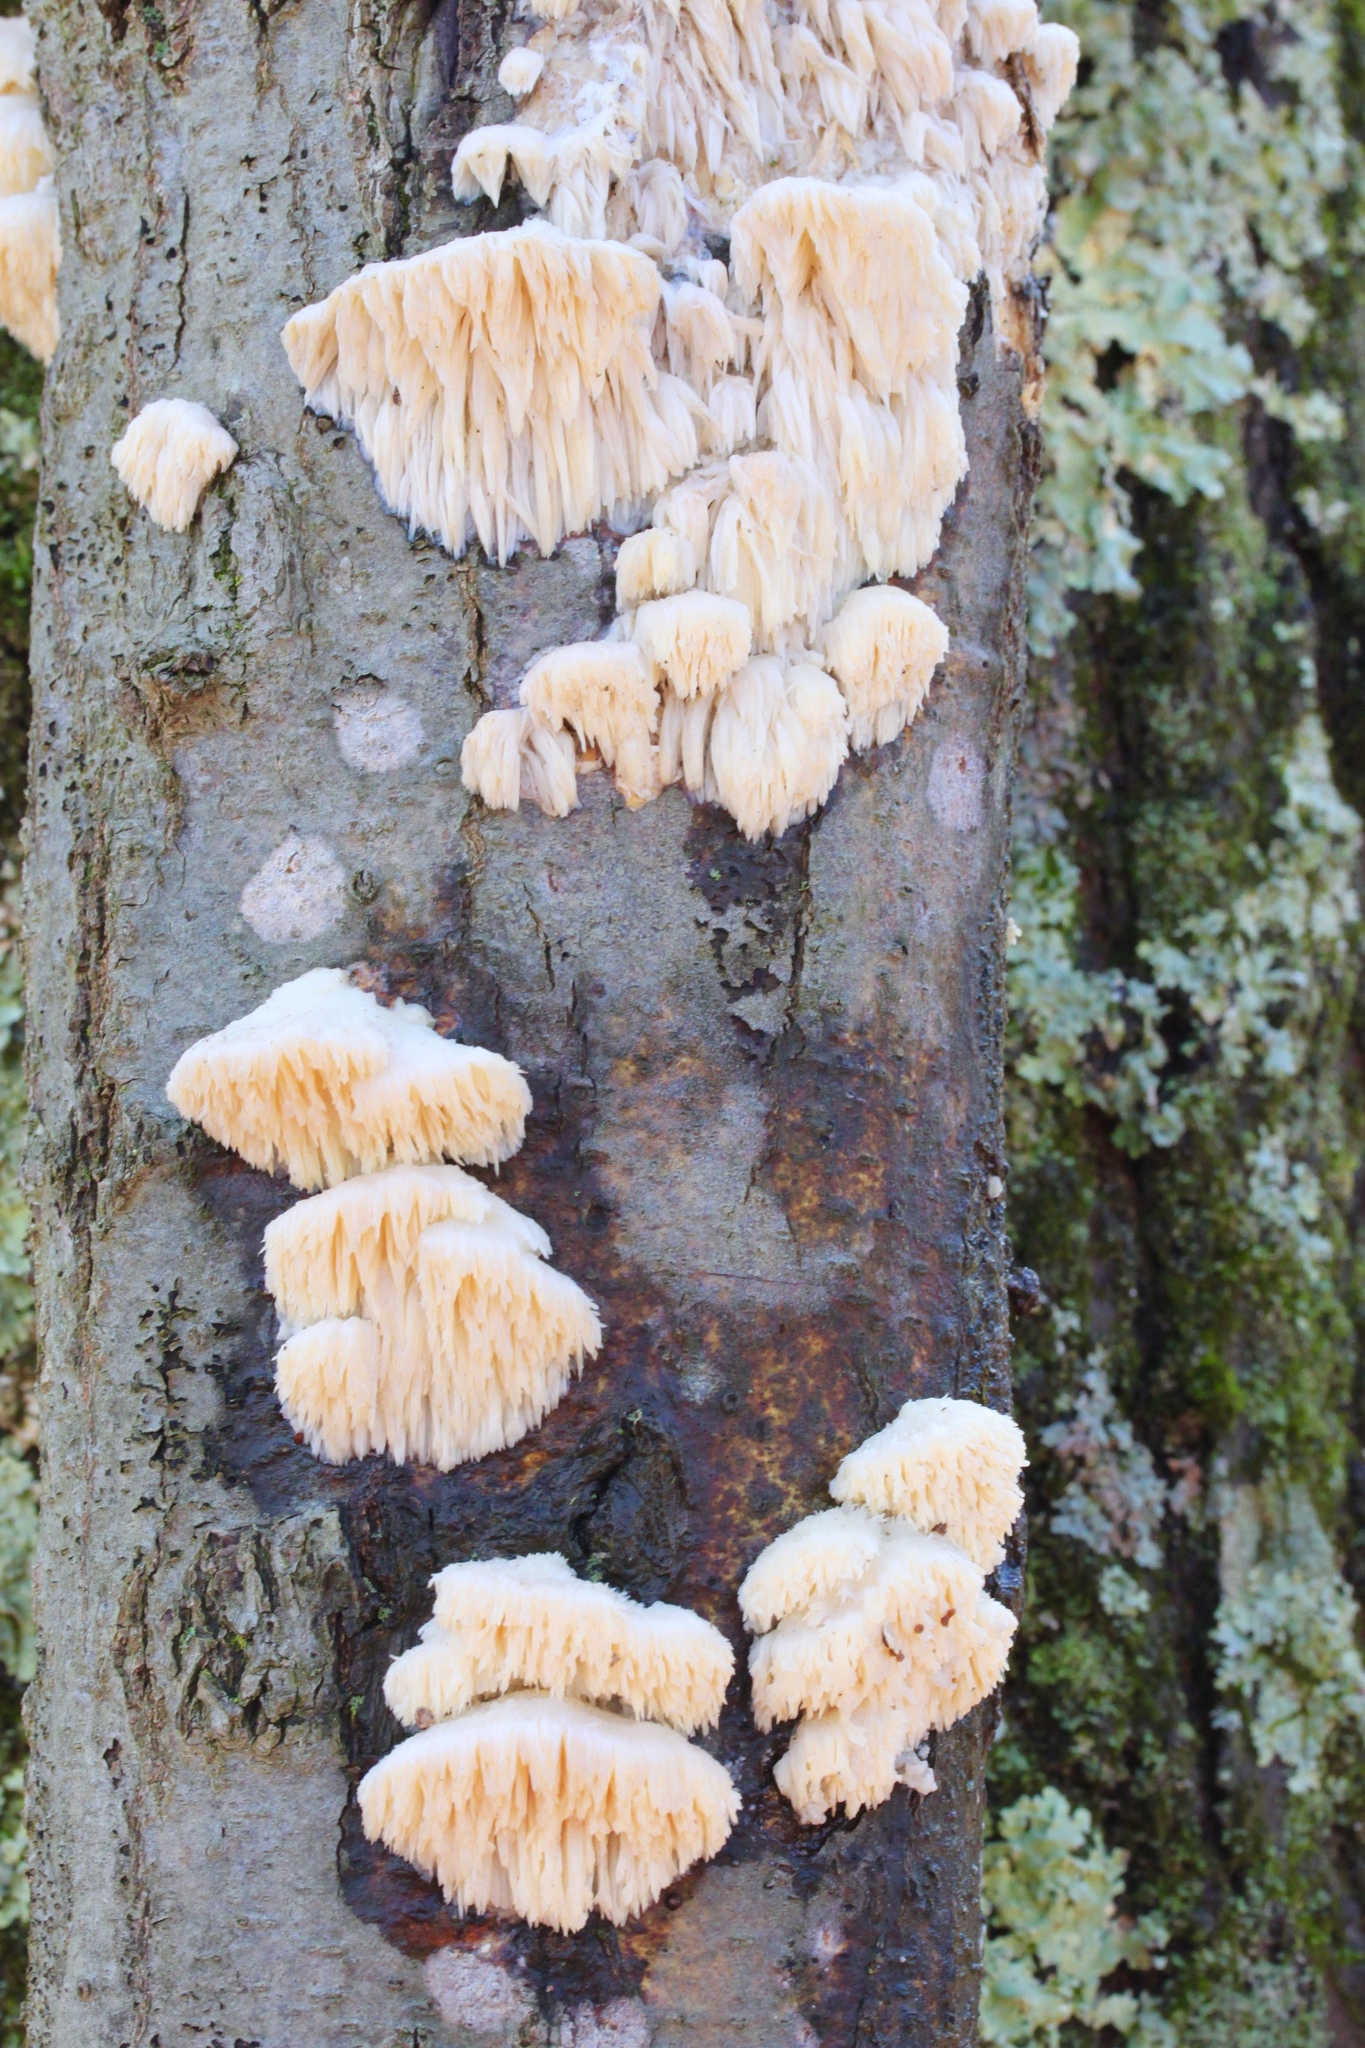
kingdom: Fungi
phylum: Basidiomycota
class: Agaricomycetes
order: Polyporales
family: Meruliaceae
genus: Irpiciporus
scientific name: Irpiciporus pachyodon
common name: Marshmallow polypore
